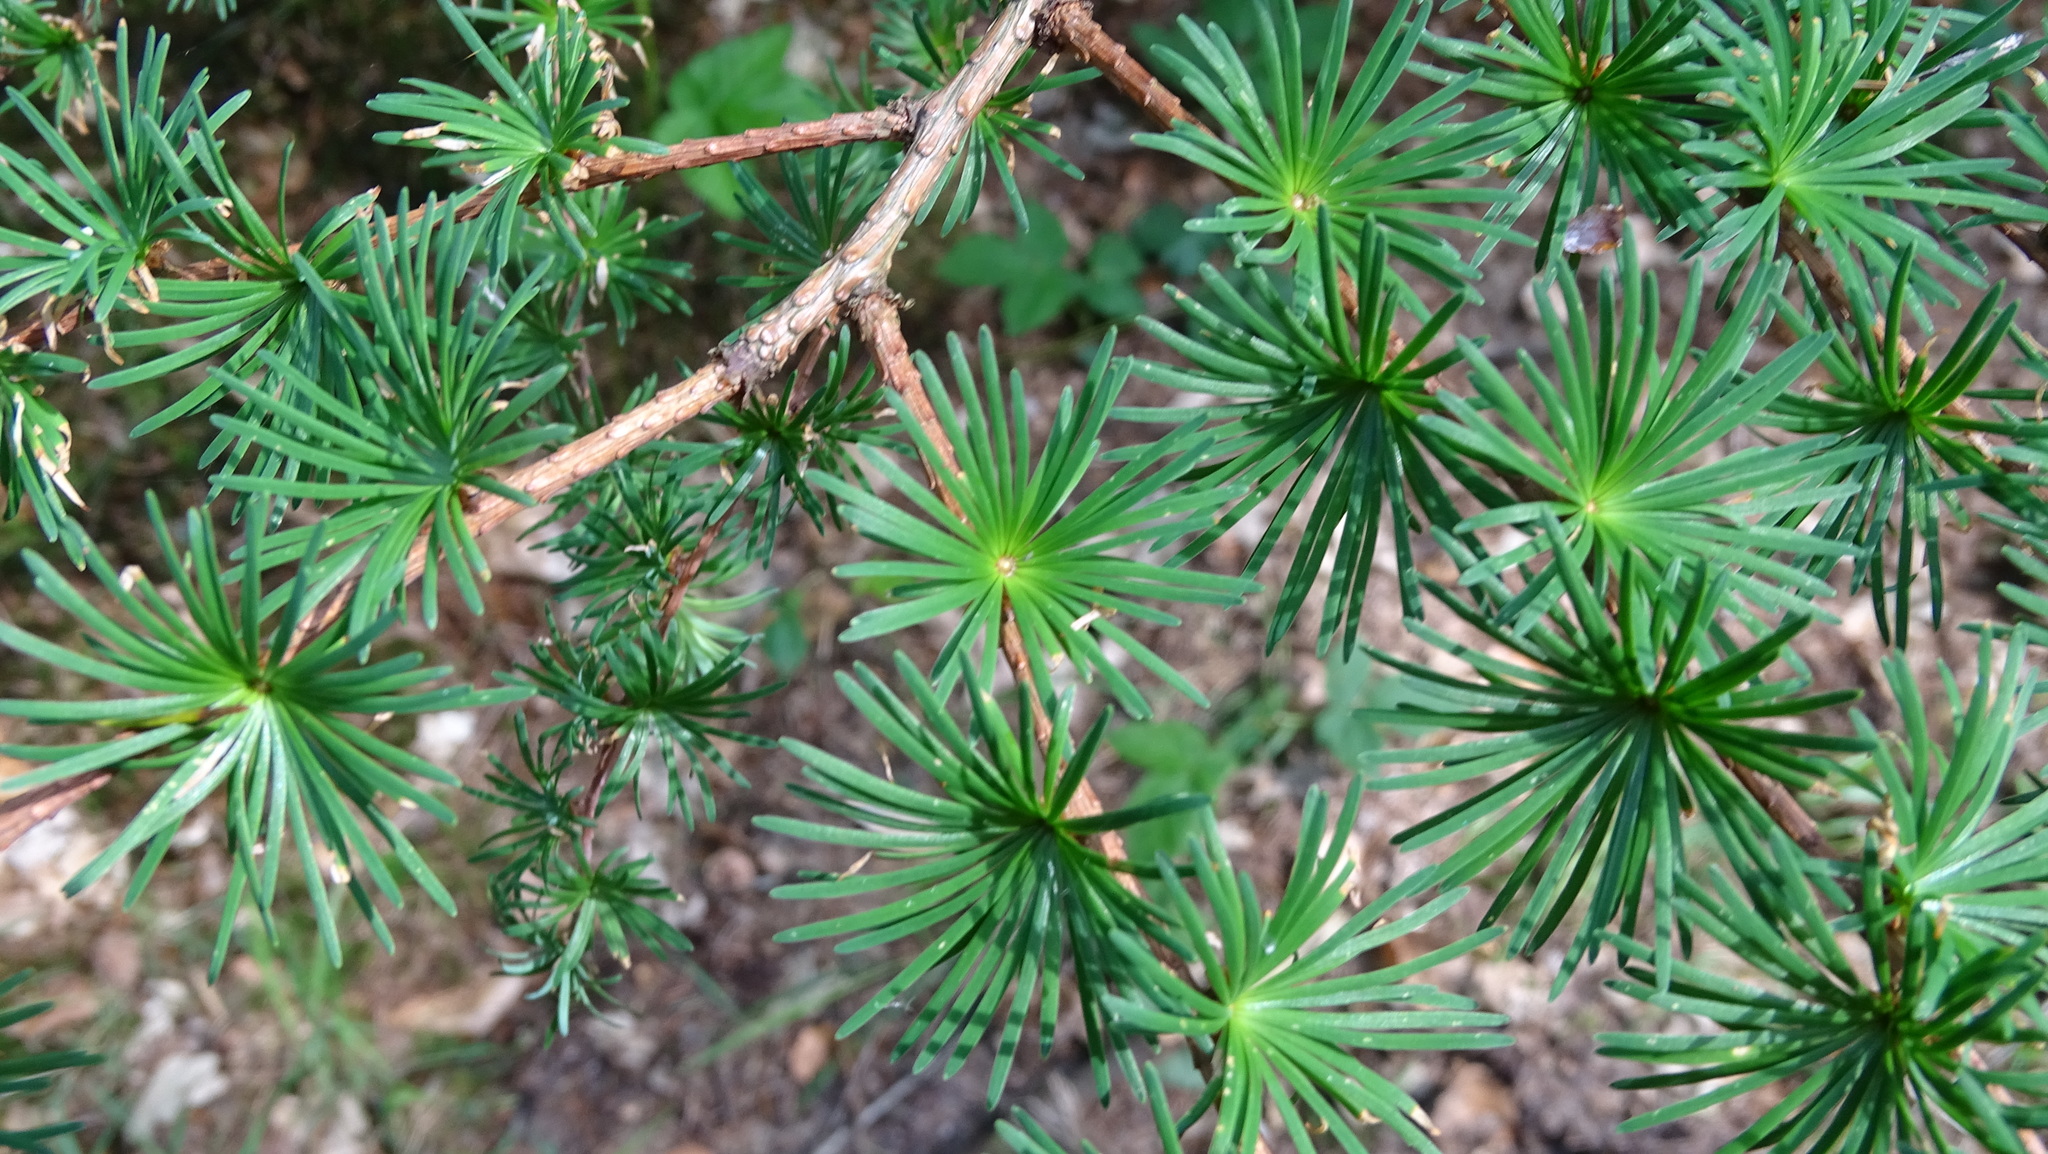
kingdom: Plantae
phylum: Tracheophyta
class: Pinopsida
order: Pinales
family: Pinaceae
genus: Larix
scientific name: Larix decidua
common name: European larch
